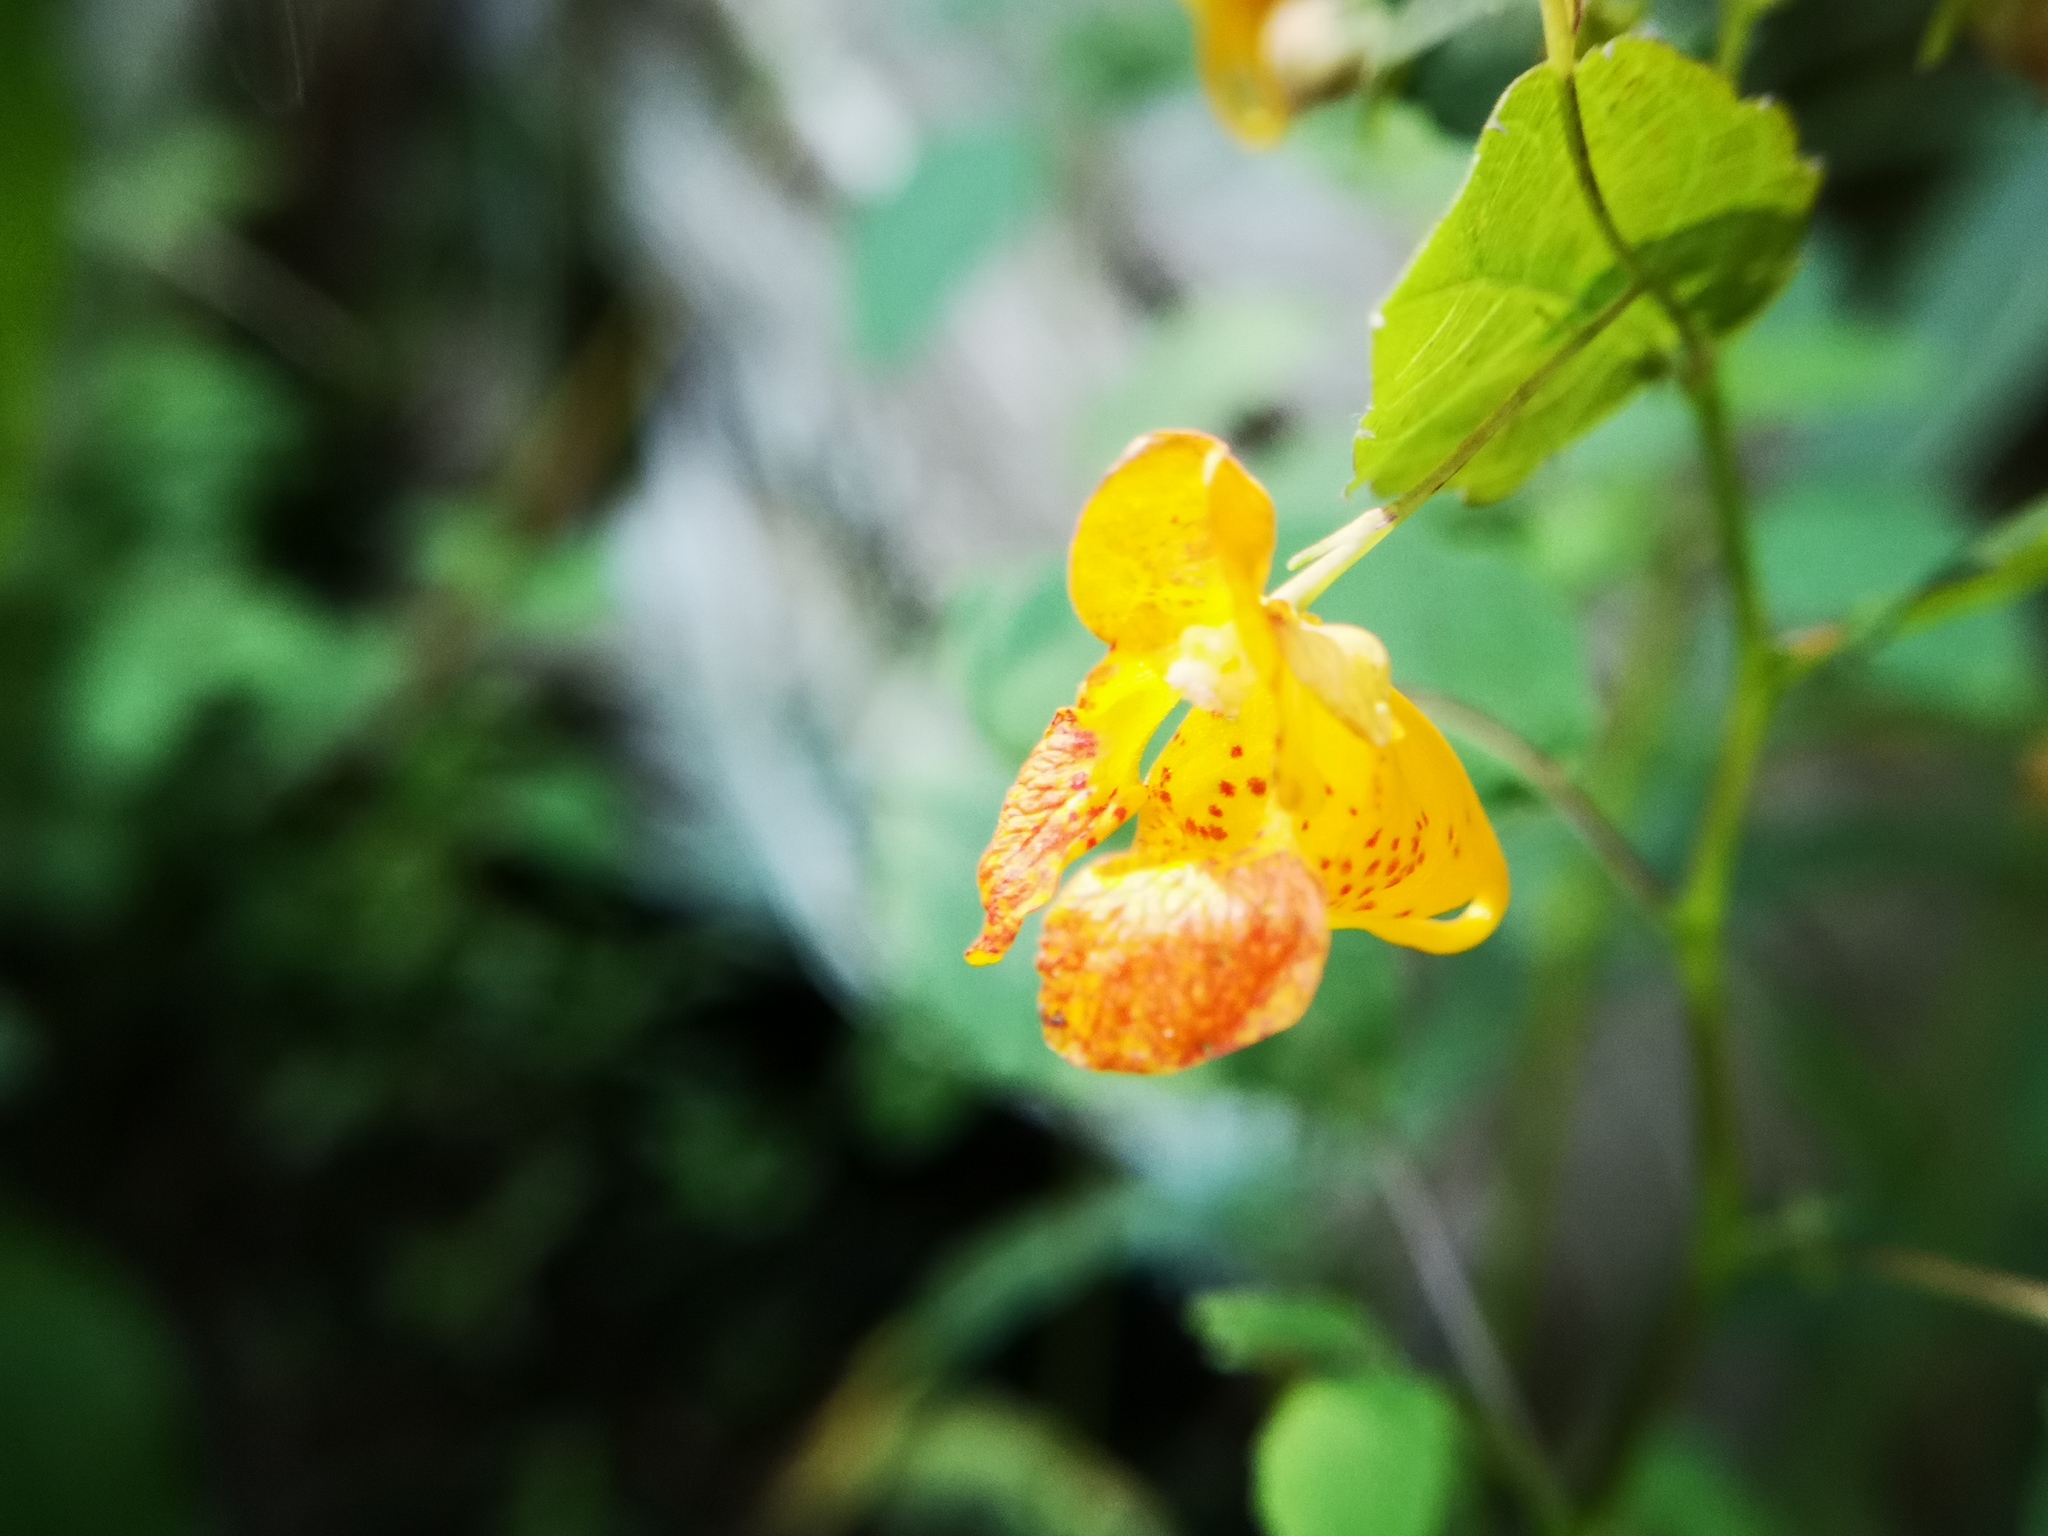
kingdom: Plantae
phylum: Tracheophyta
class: Magnoliopsida
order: Ericales
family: Balsaminaceae
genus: Impatiens
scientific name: Impatiens capensis
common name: Orange balsam
